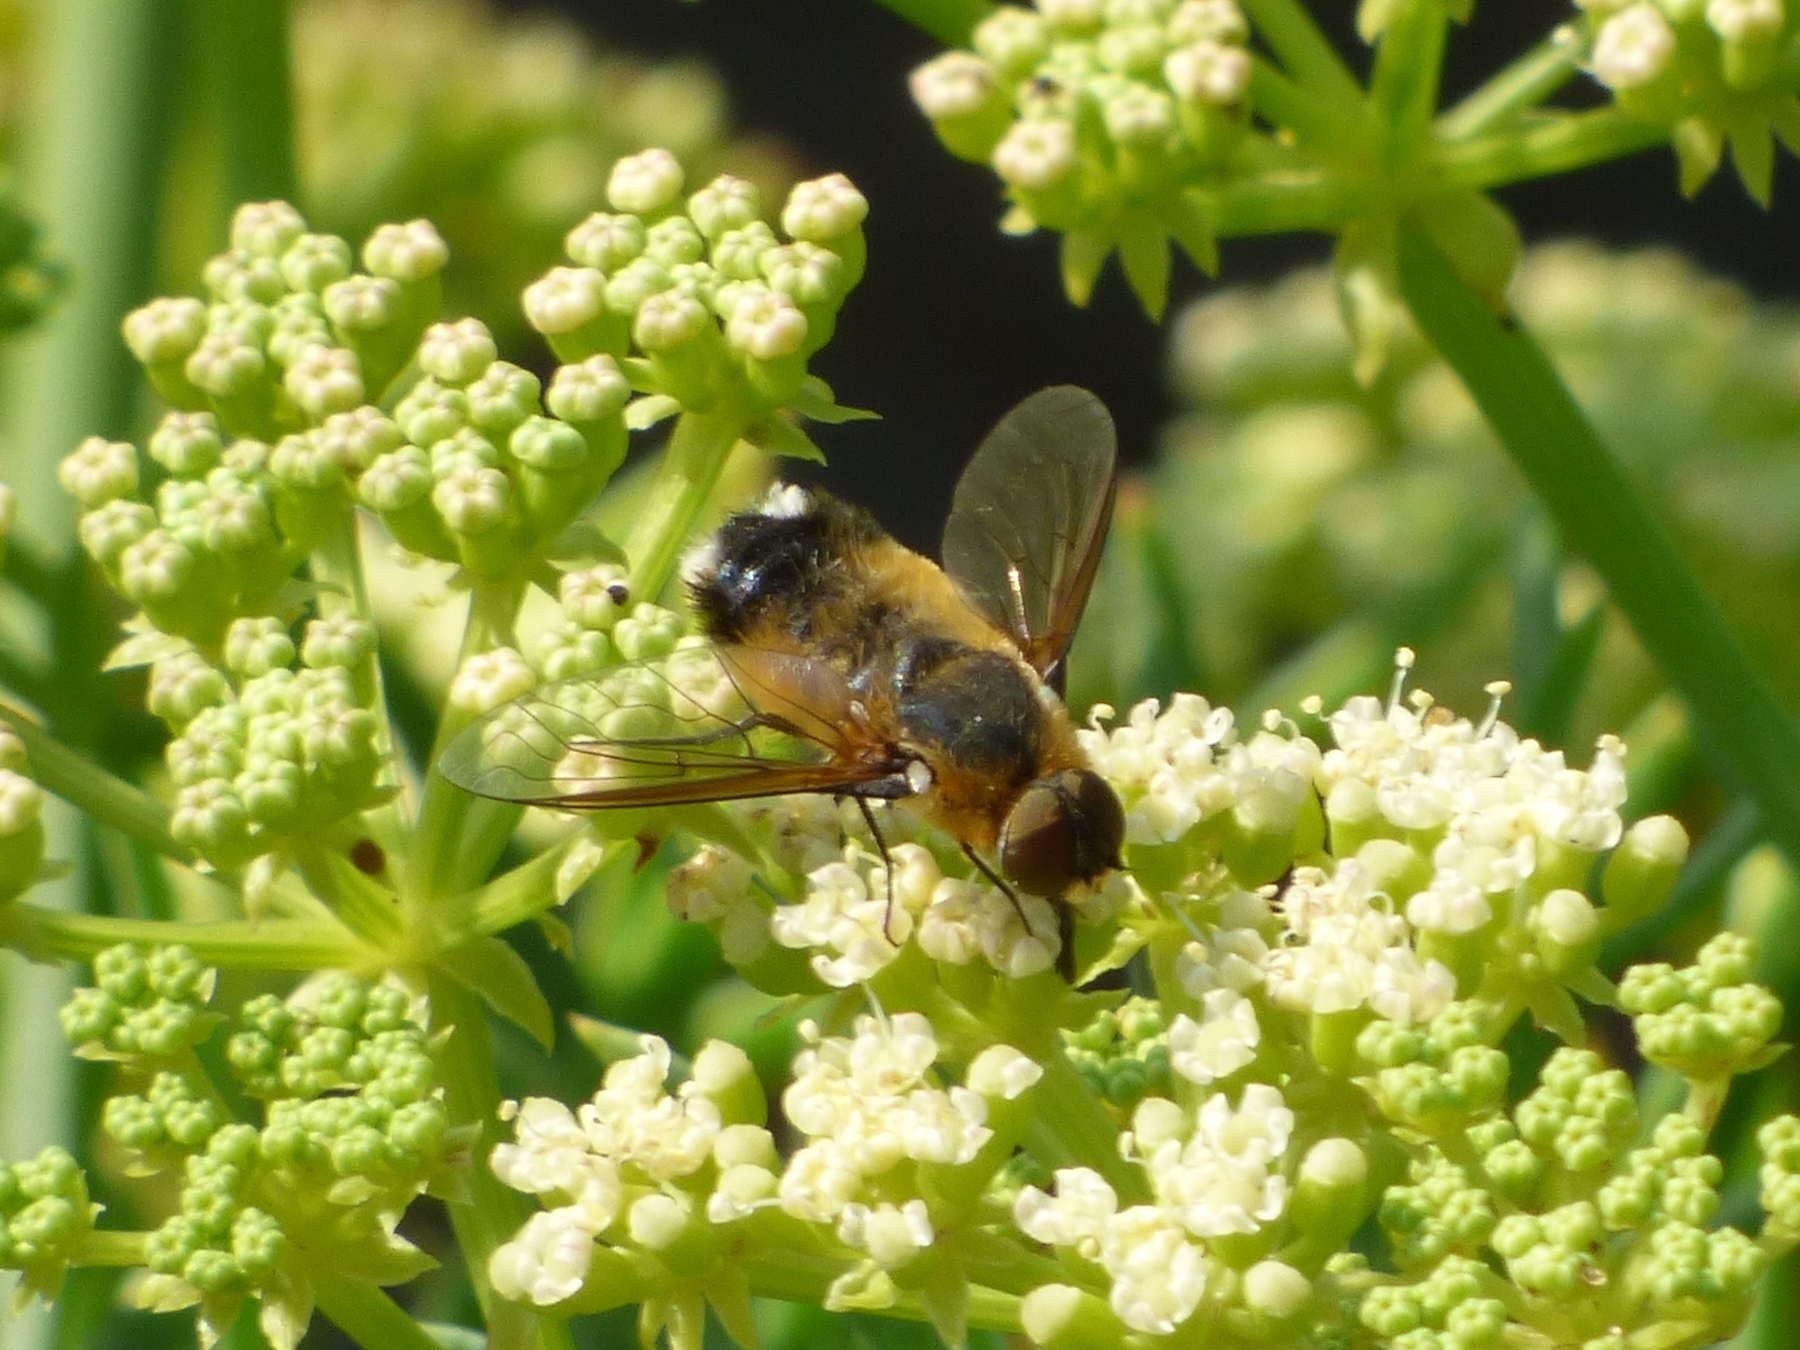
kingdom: Animalia
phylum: Arthropoda
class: Insecta
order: Diptera
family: Bombyliidae
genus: Villa
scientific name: Villa modesta
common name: Dune villa
